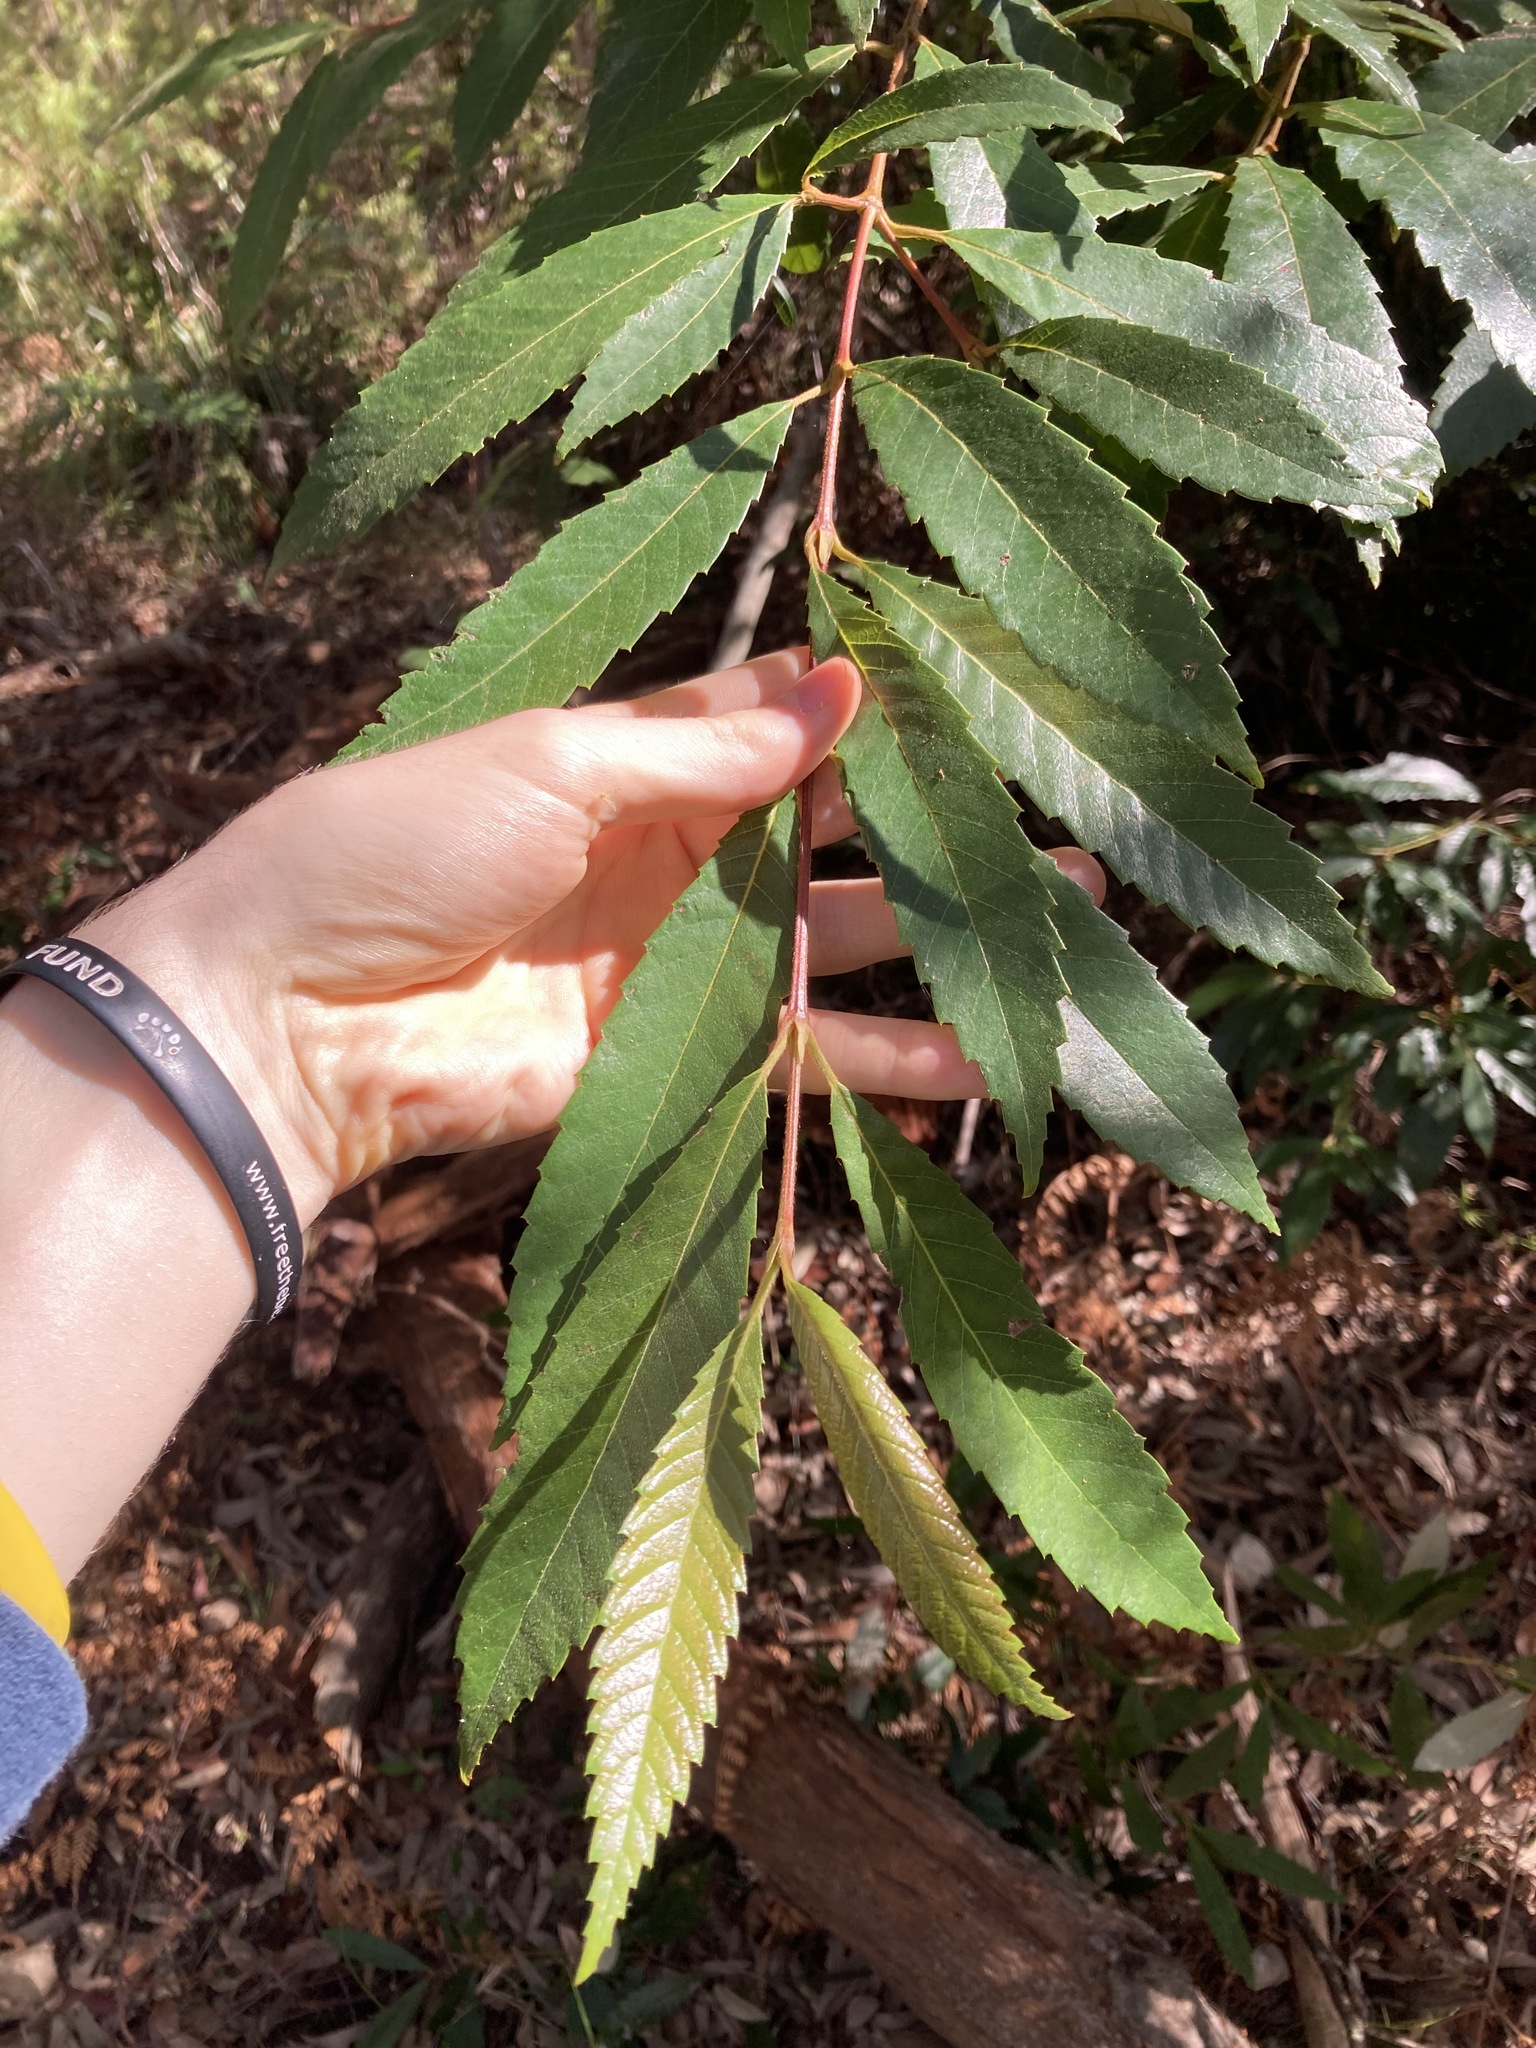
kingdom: Plantae
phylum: Tracheophyta
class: Magnoliopsida
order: Oxalidales
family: Cunoniaceae
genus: Callicoma
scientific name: Callicoma serratifolia
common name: Black wattle
